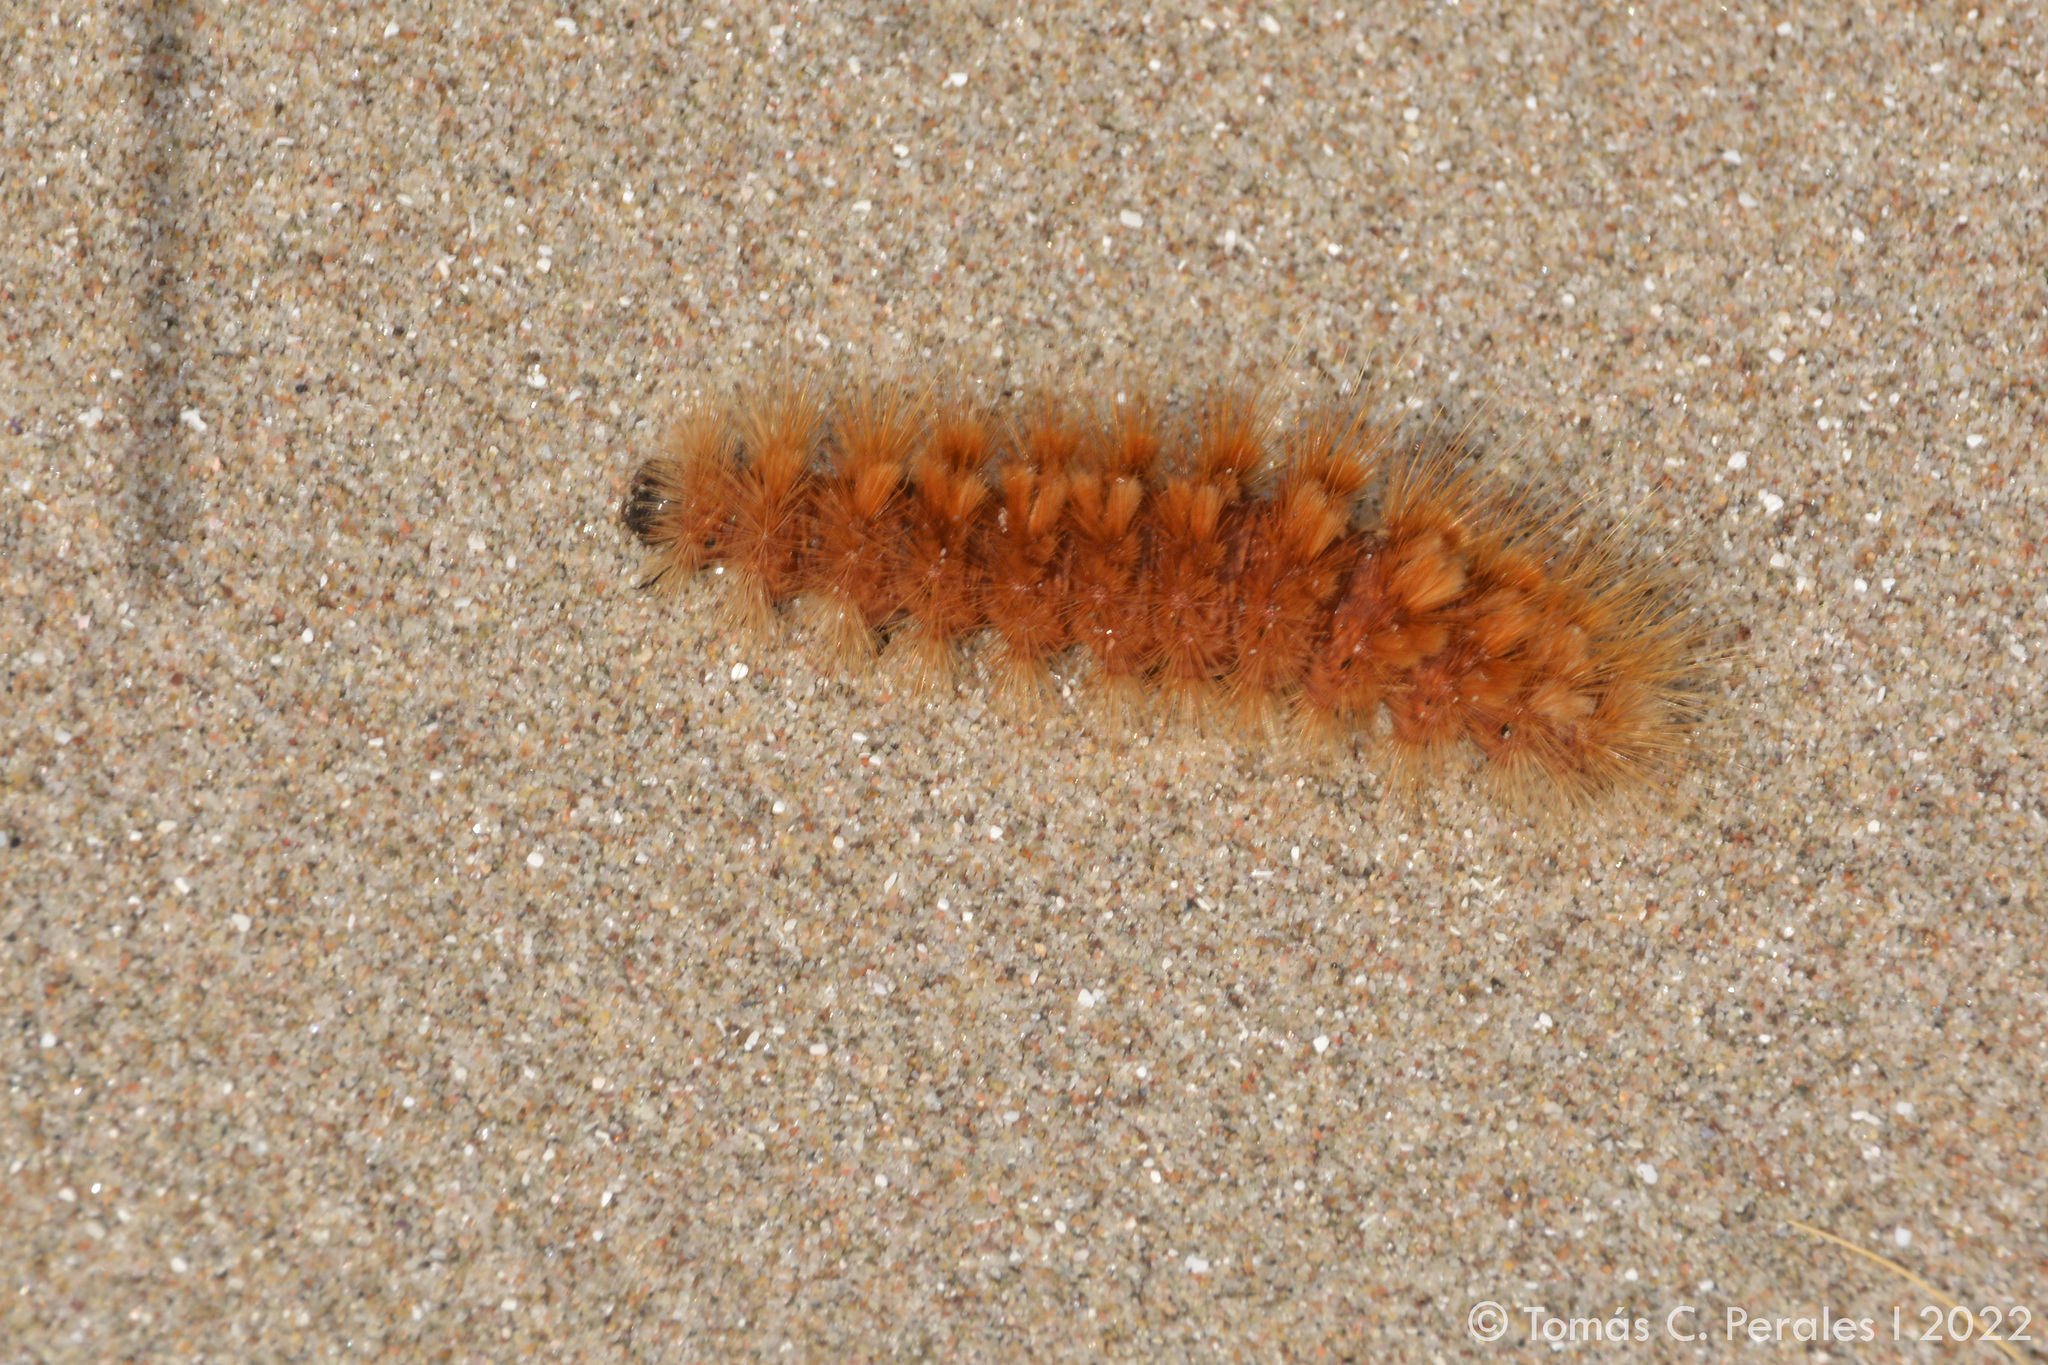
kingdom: Animalia
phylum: Arthropoda
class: Insecta
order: Lepidoptera
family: Erebidae
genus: Paracles
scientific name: Paracles severa
